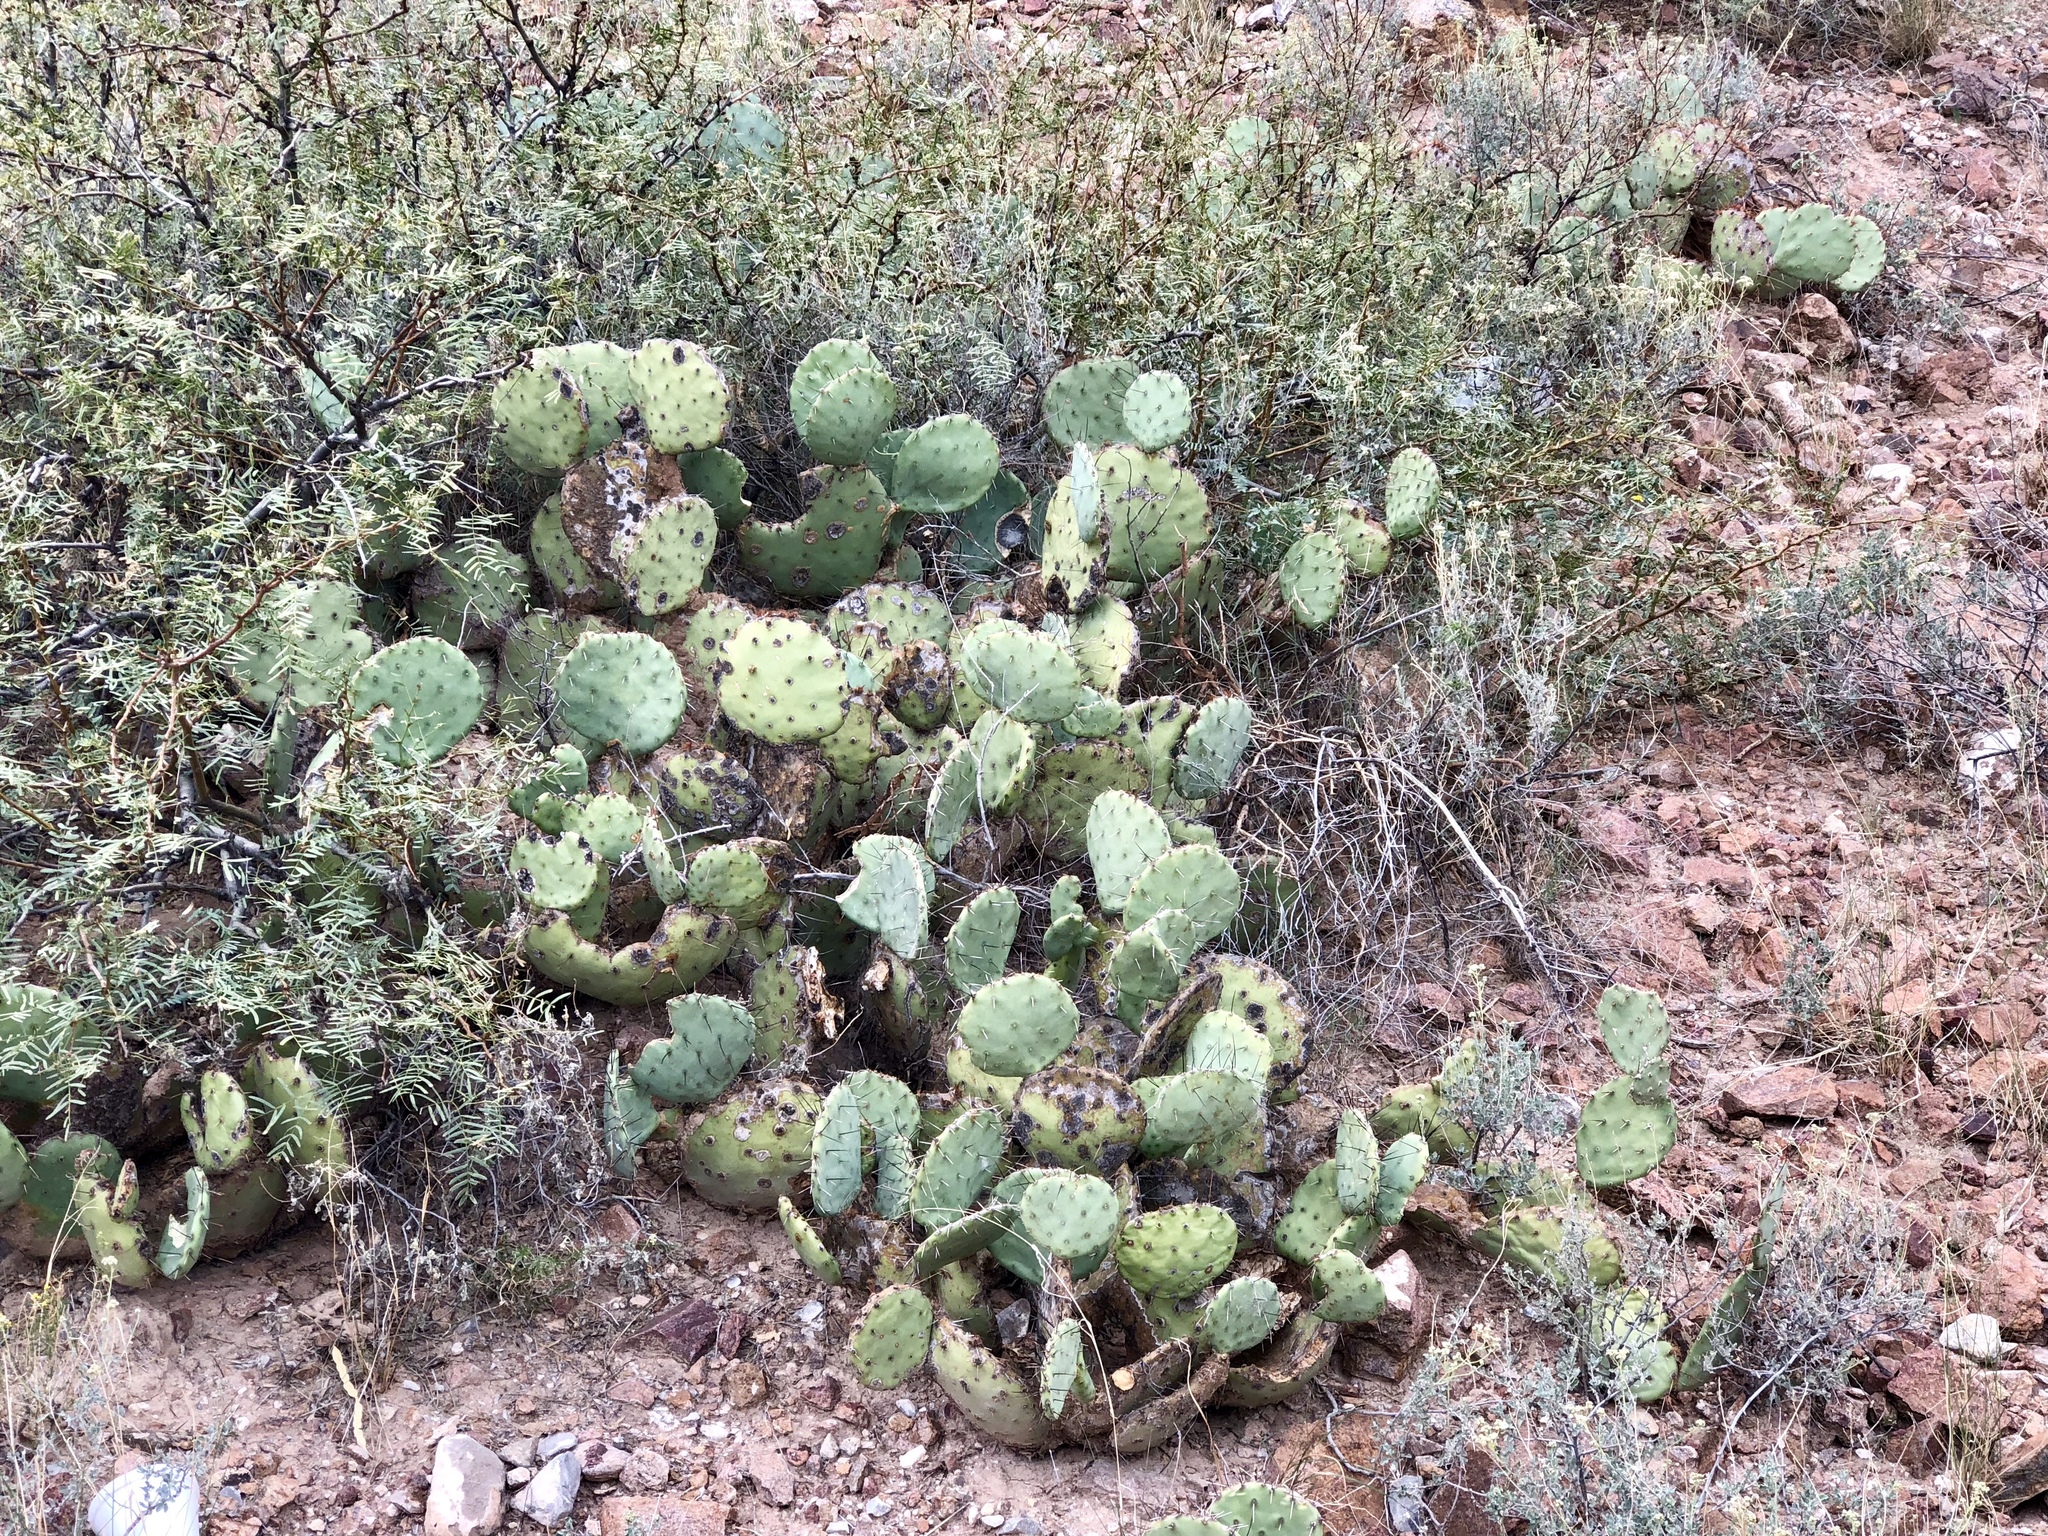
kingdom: Plantae
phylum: Tracheophyta
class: Magnoliopsida
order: Caryophyllales
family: Cactaceae
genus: Opuntia
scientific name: Opuntia engelmannii
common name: Cactus-apple
